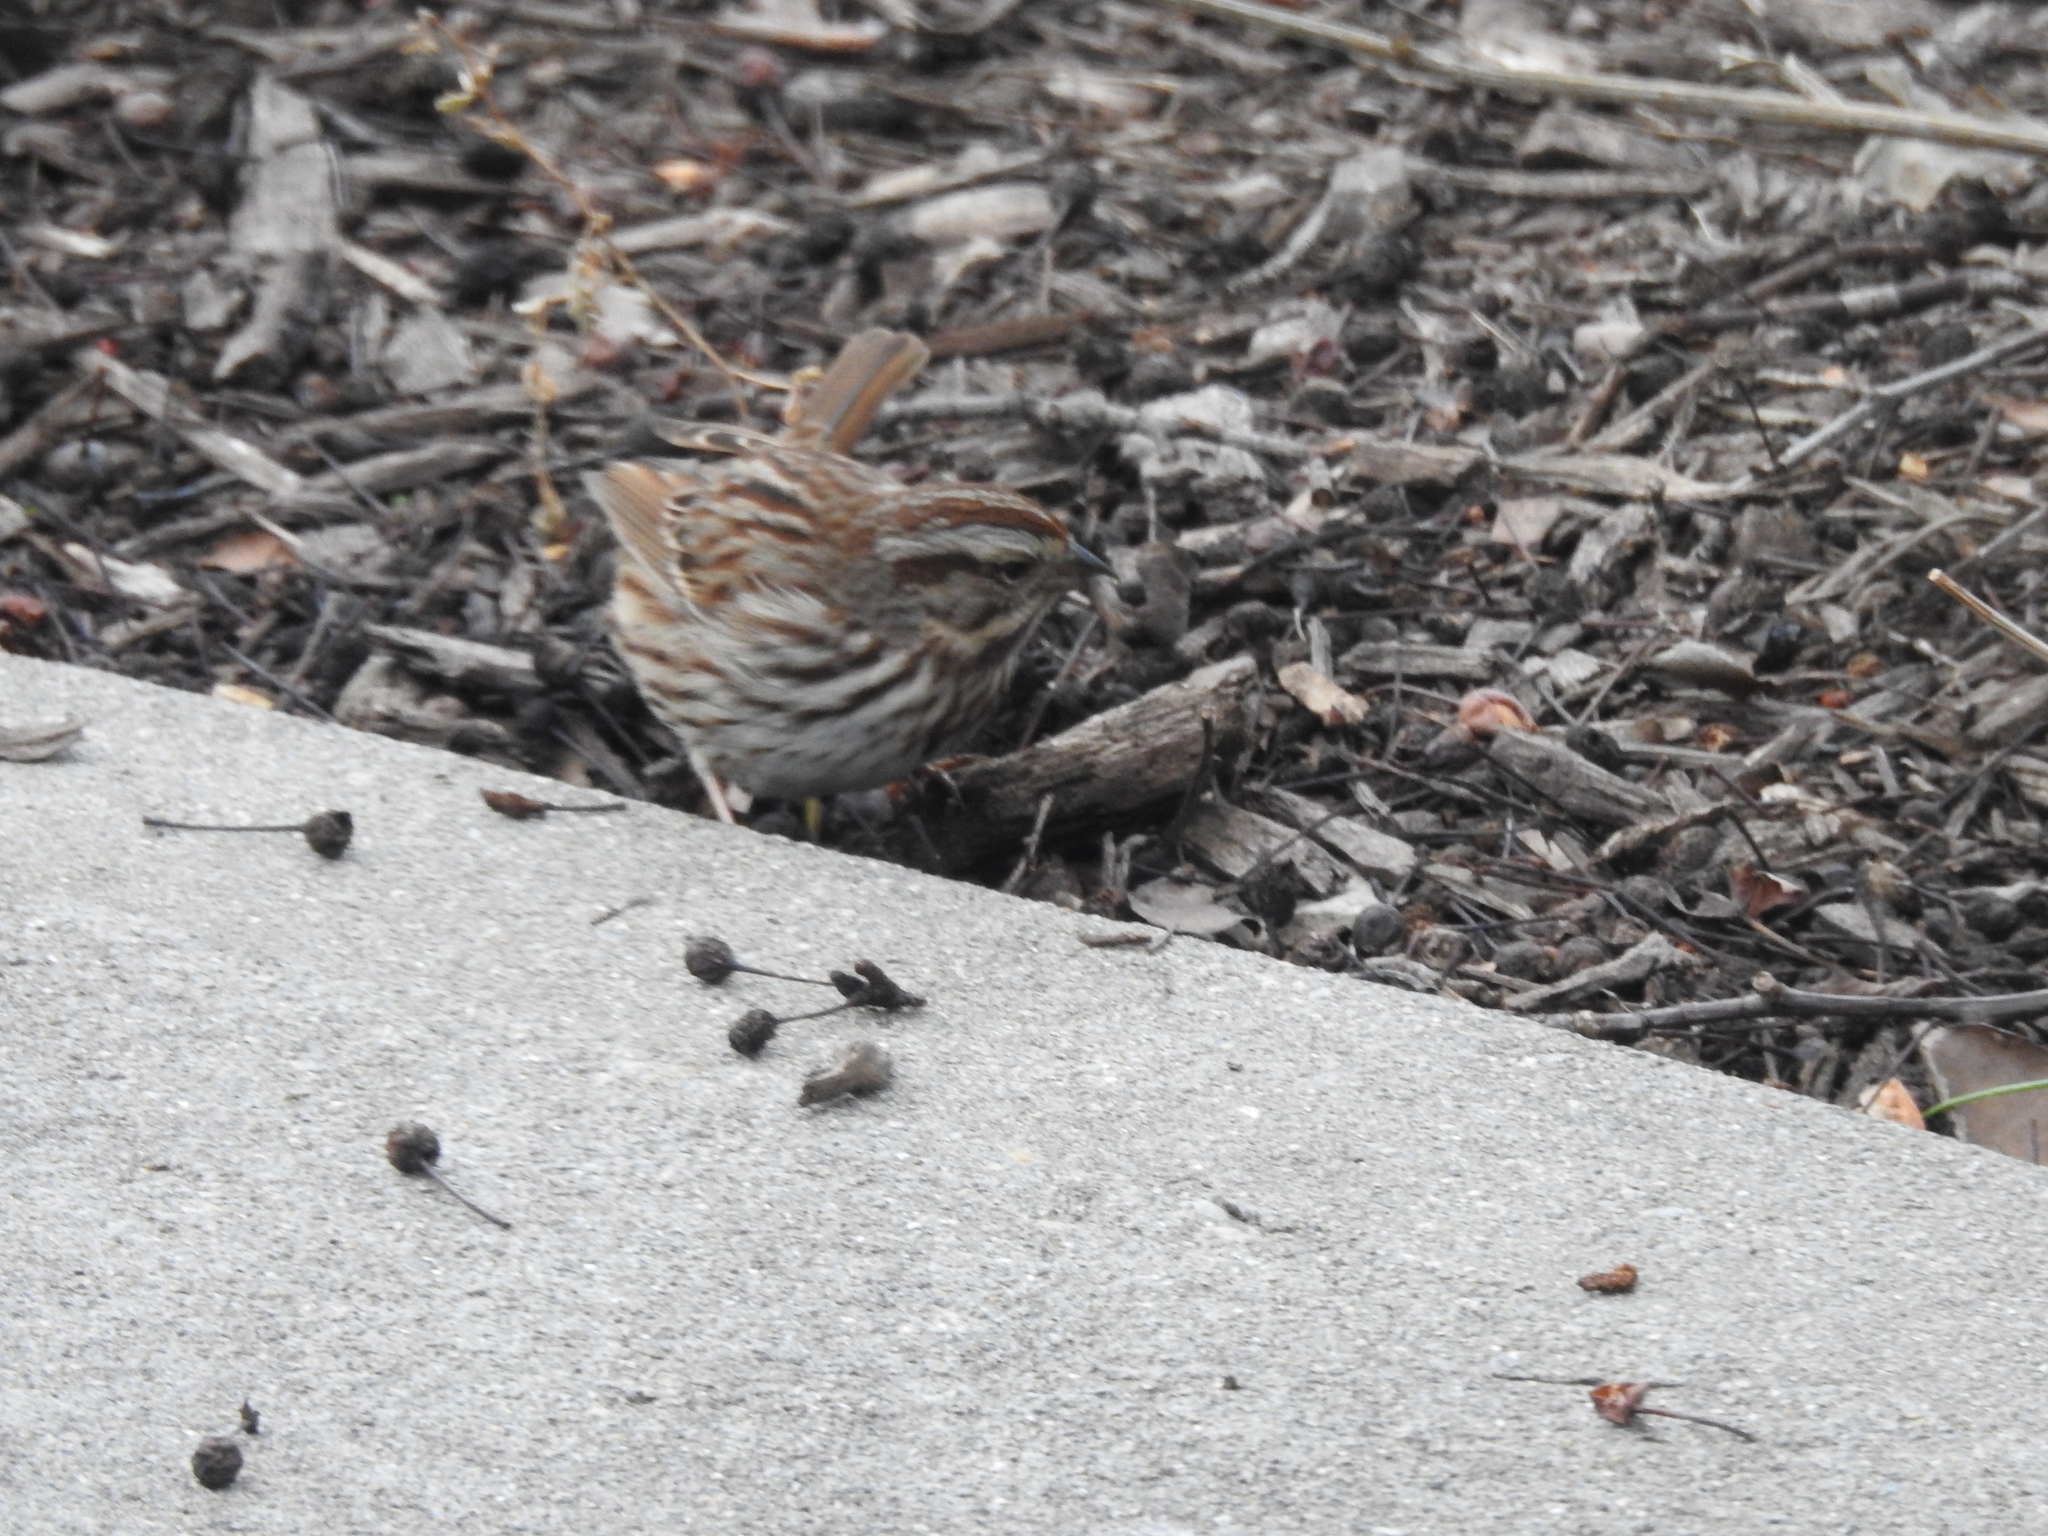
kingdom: Animalia
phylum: Chordata
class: Aves
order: Passeriformes
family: Passerellidae
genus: Melospiza
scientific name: Melospiza melodia
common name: Song sparrow
